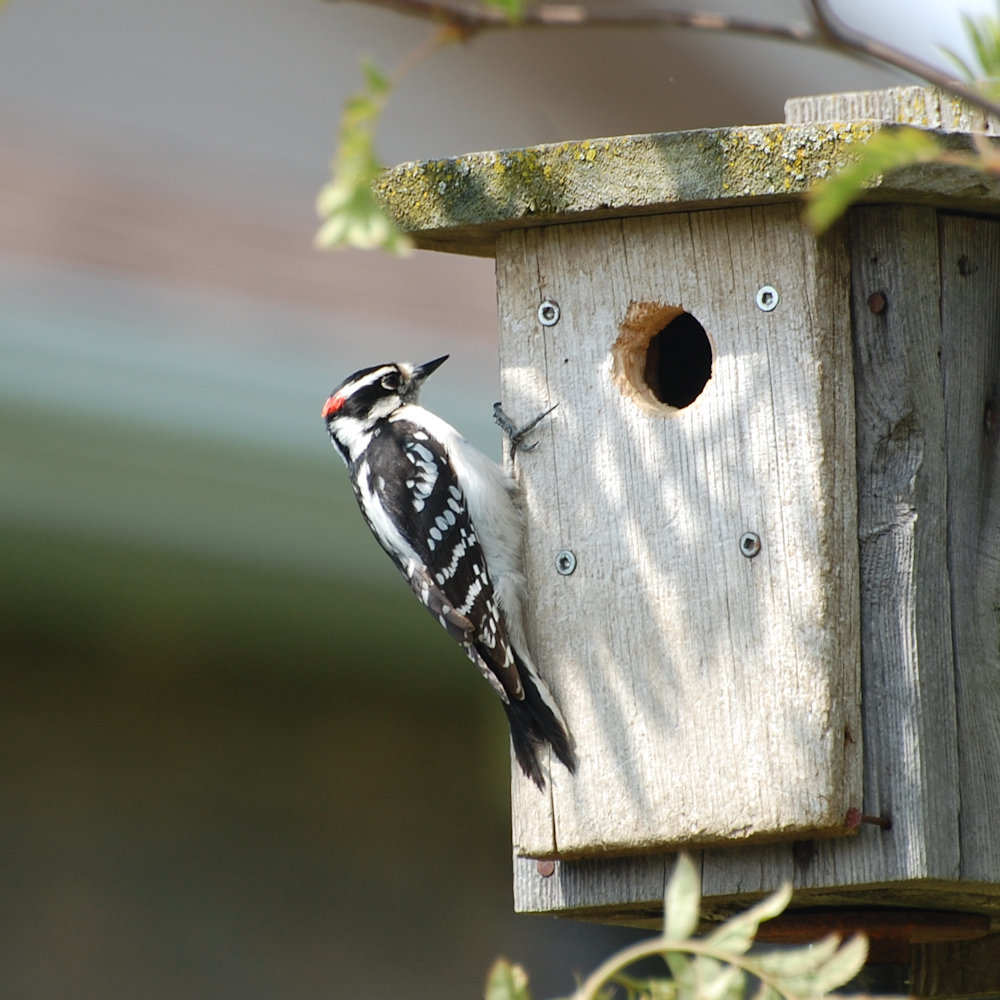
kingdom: Animalia
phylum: Chordata
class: Aves
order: Piciformes
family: Picidae
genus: Dryobates
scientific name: Dryobates pubescens
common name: Downy woodpecker
